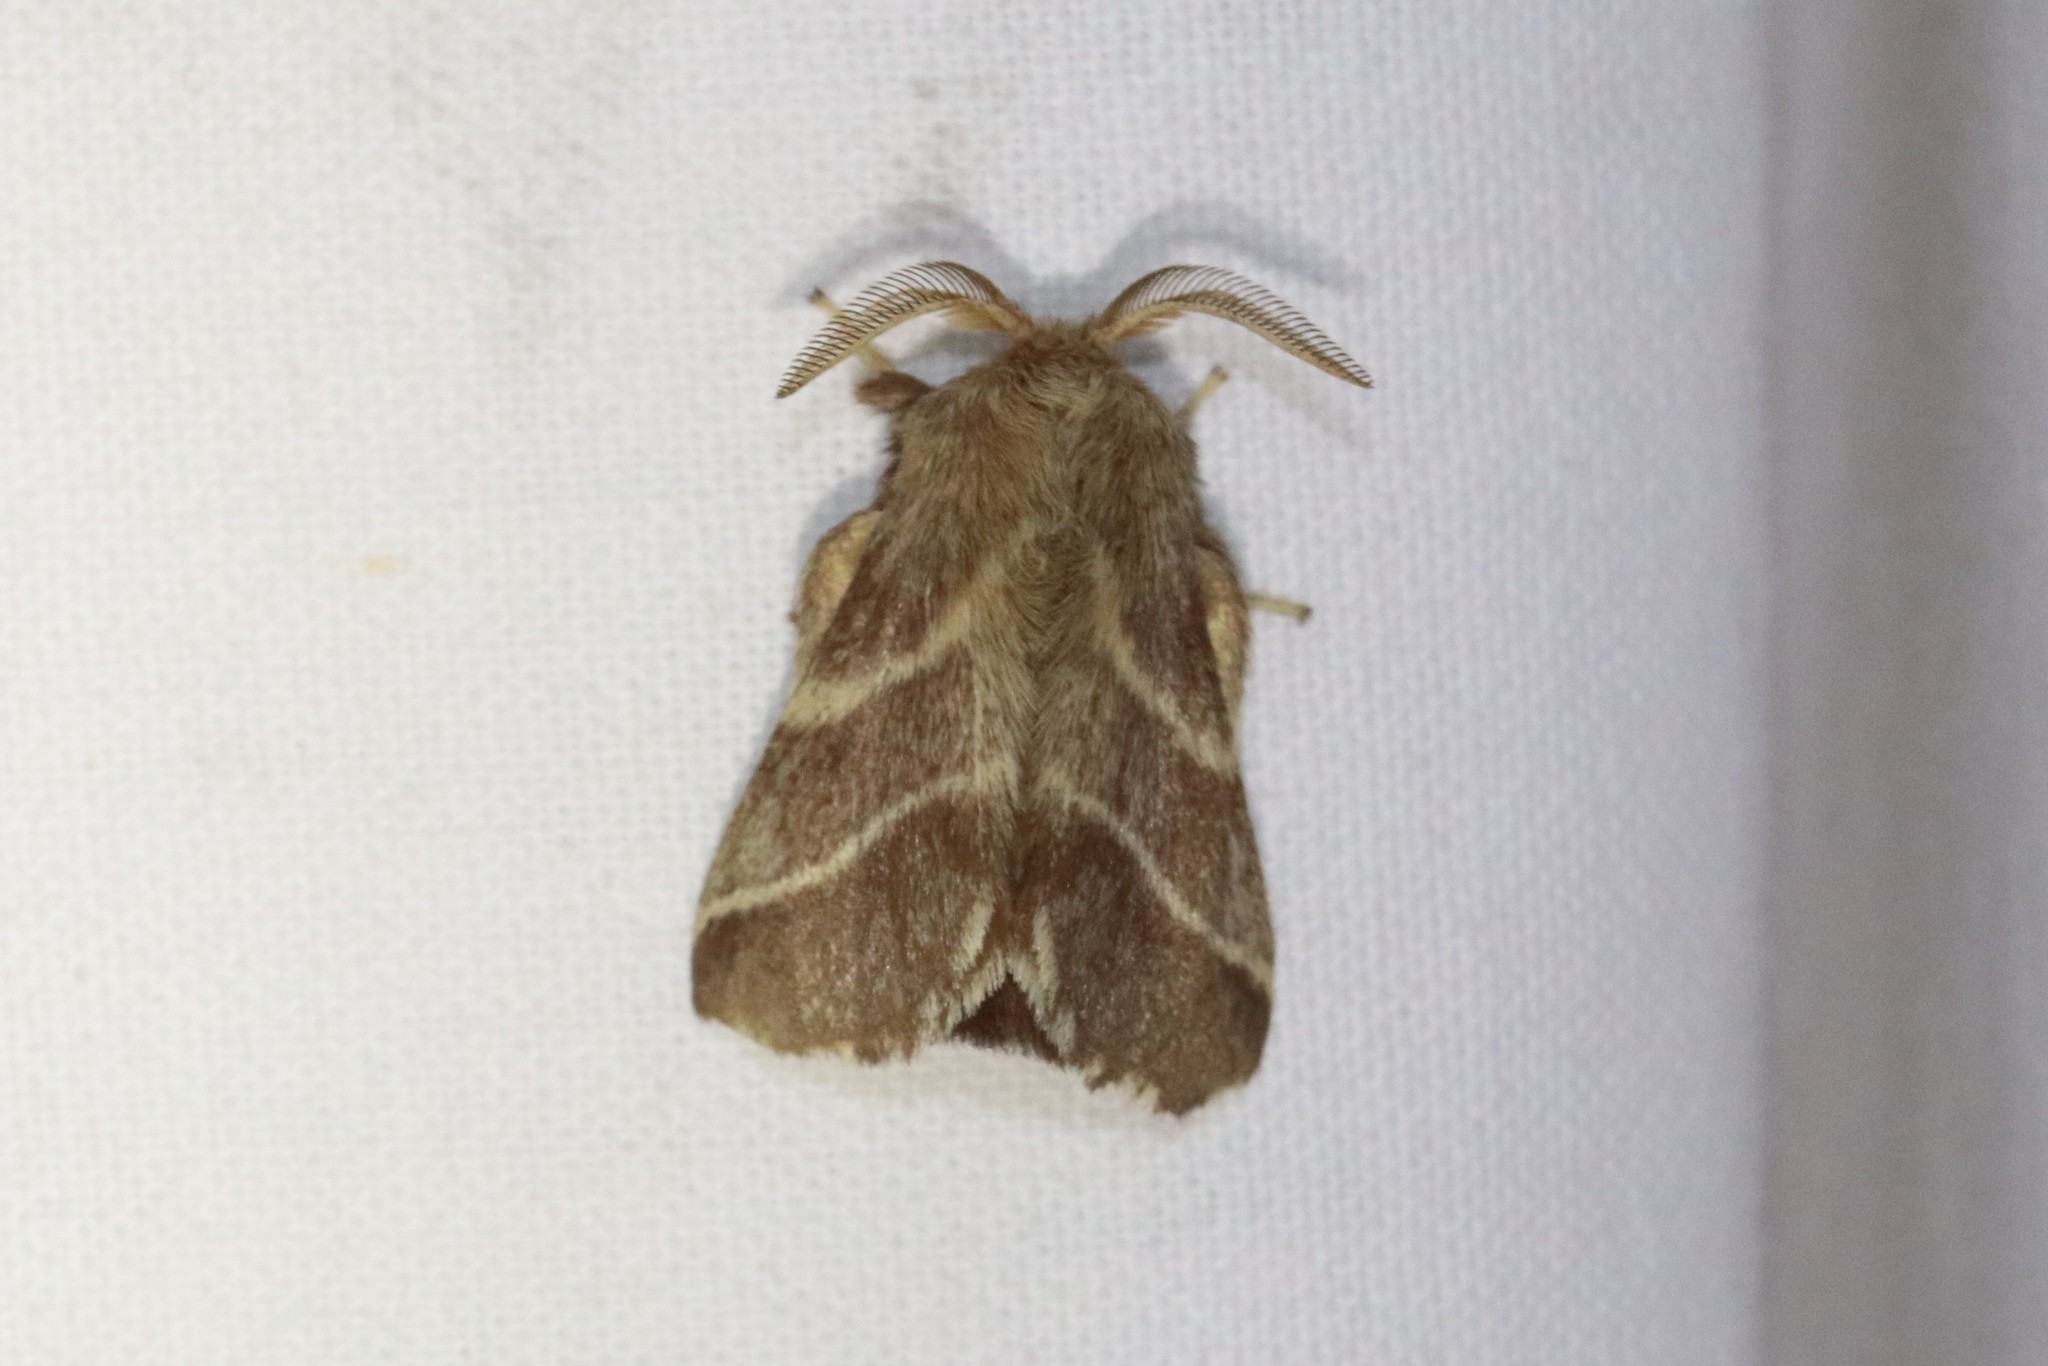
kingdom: Animalia
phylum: Arthropoda
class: Insecta
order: Lepidoptera
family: Lasiocampidae
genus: Malacosoma
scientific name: Malacosoma americana
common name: Eastern tent caterpillar moth
